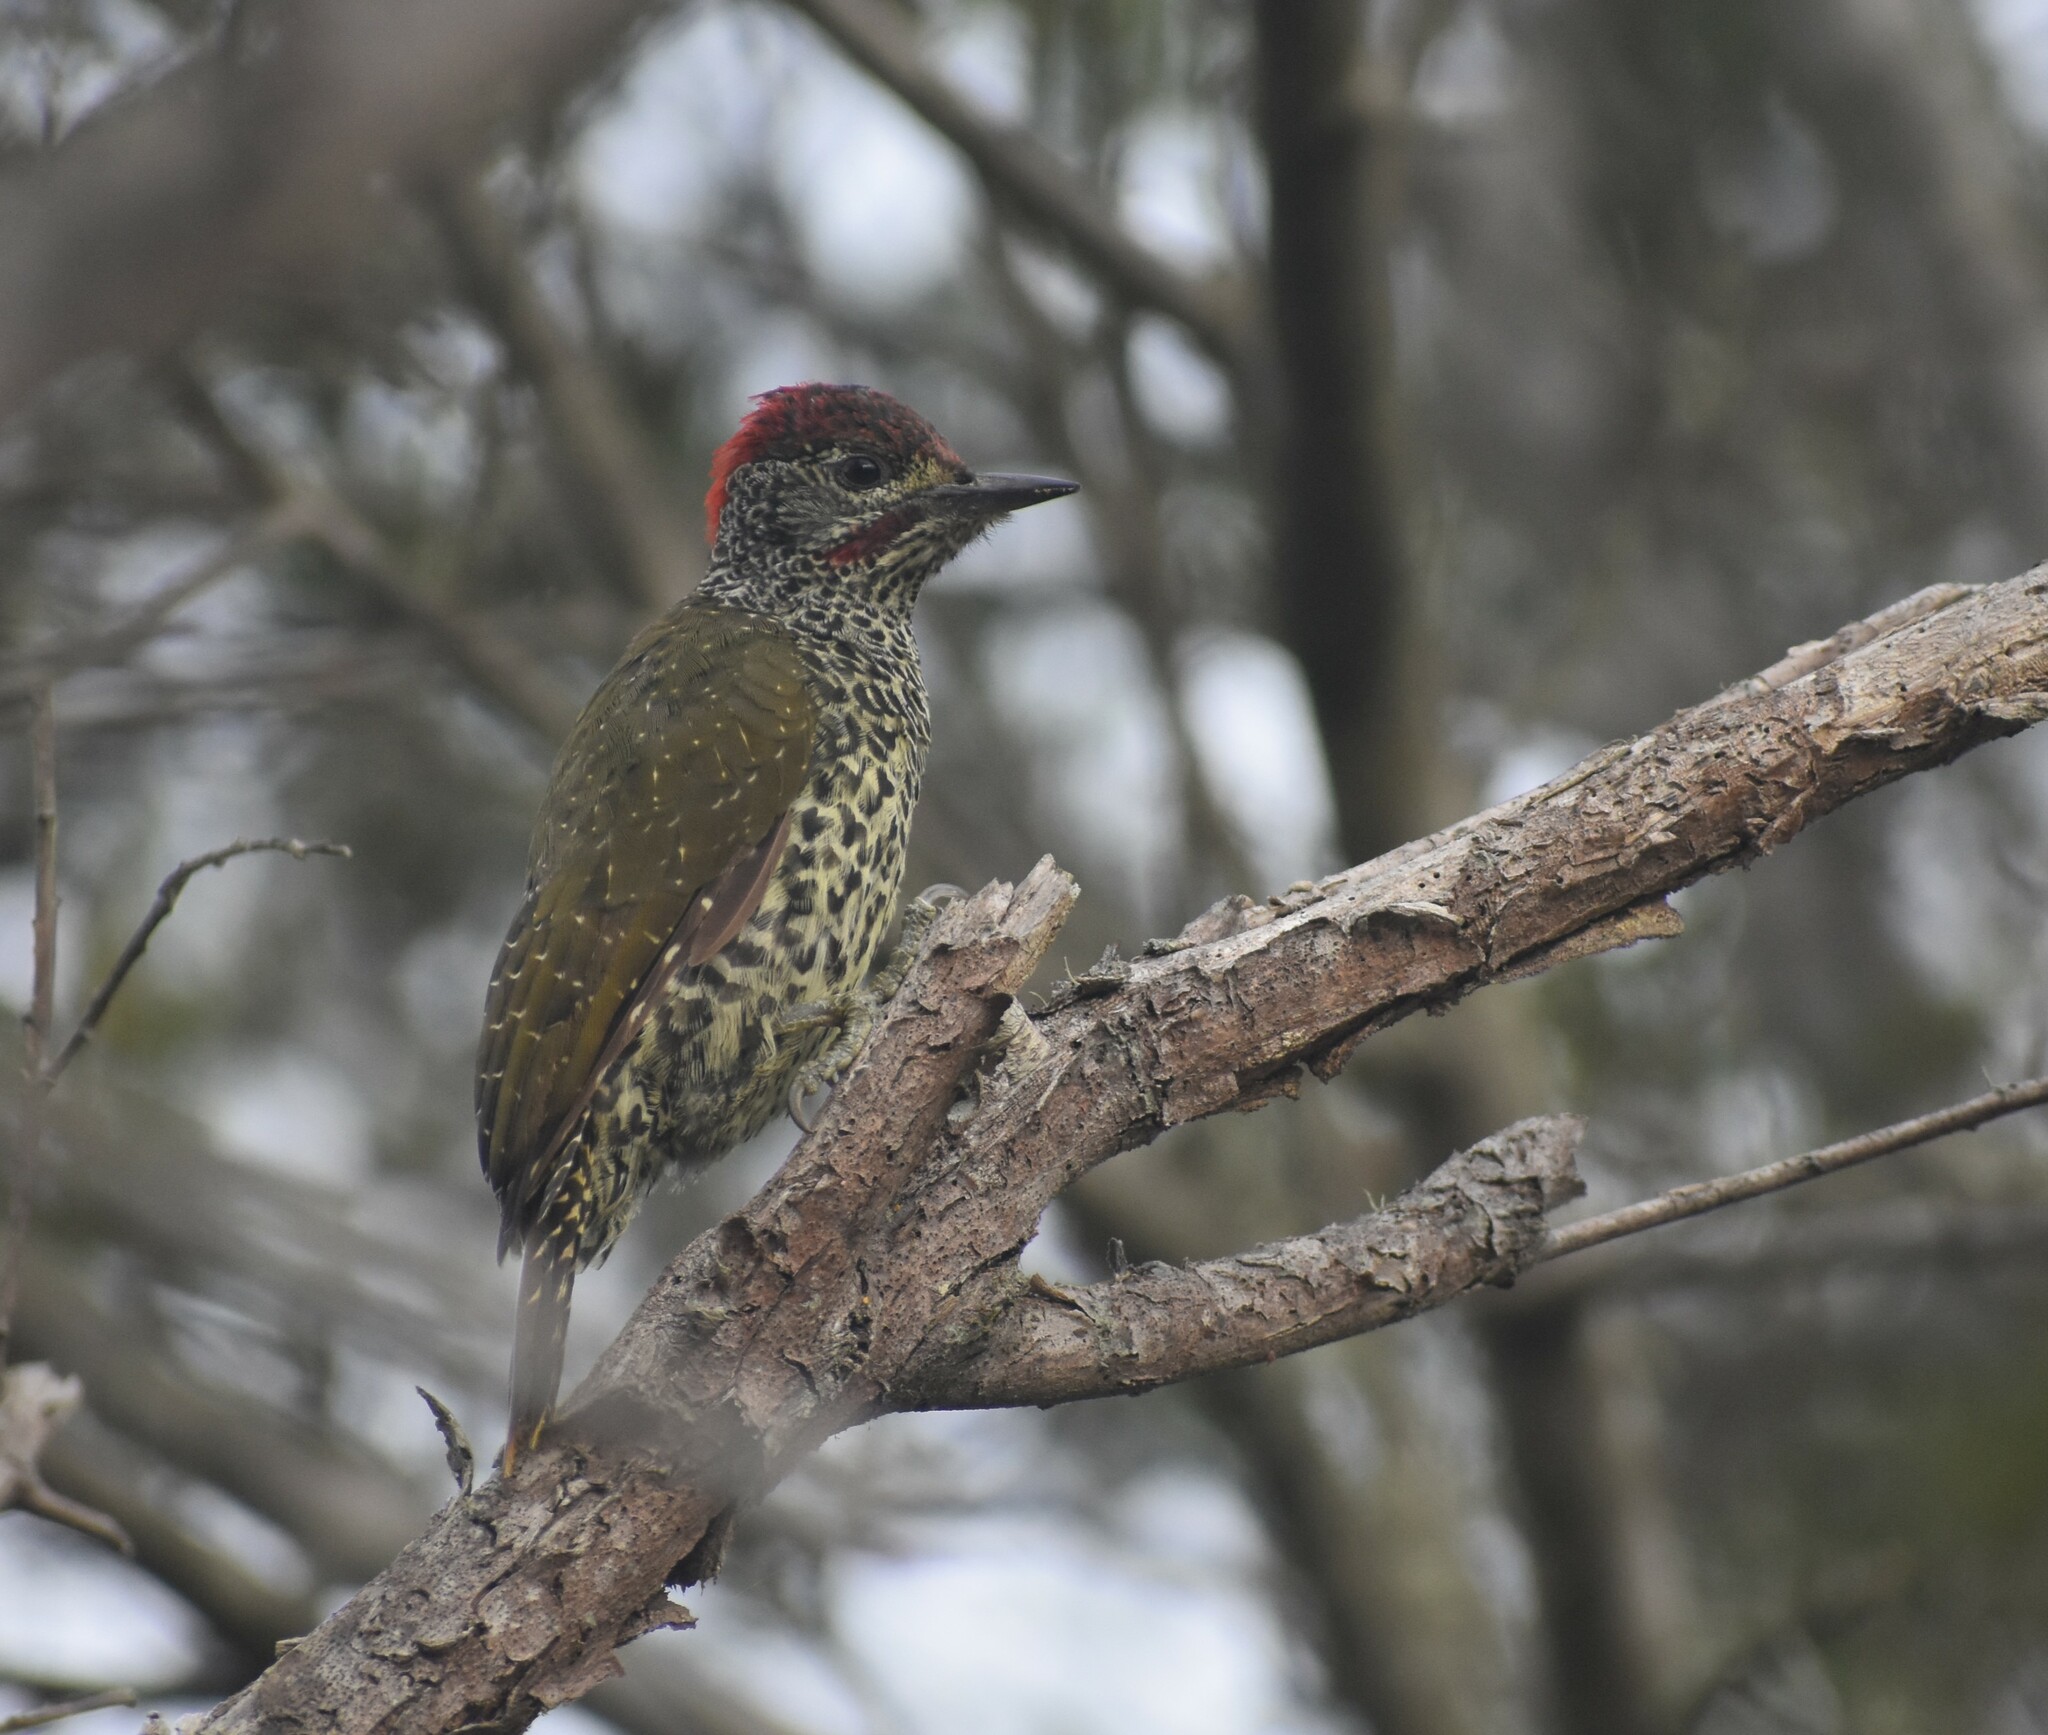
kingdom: Animalia
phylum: Chordata
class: Aves
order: Piciformes
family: Picidae
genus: Campethera
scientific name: Campethera notata
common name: Knysna woodpecker
